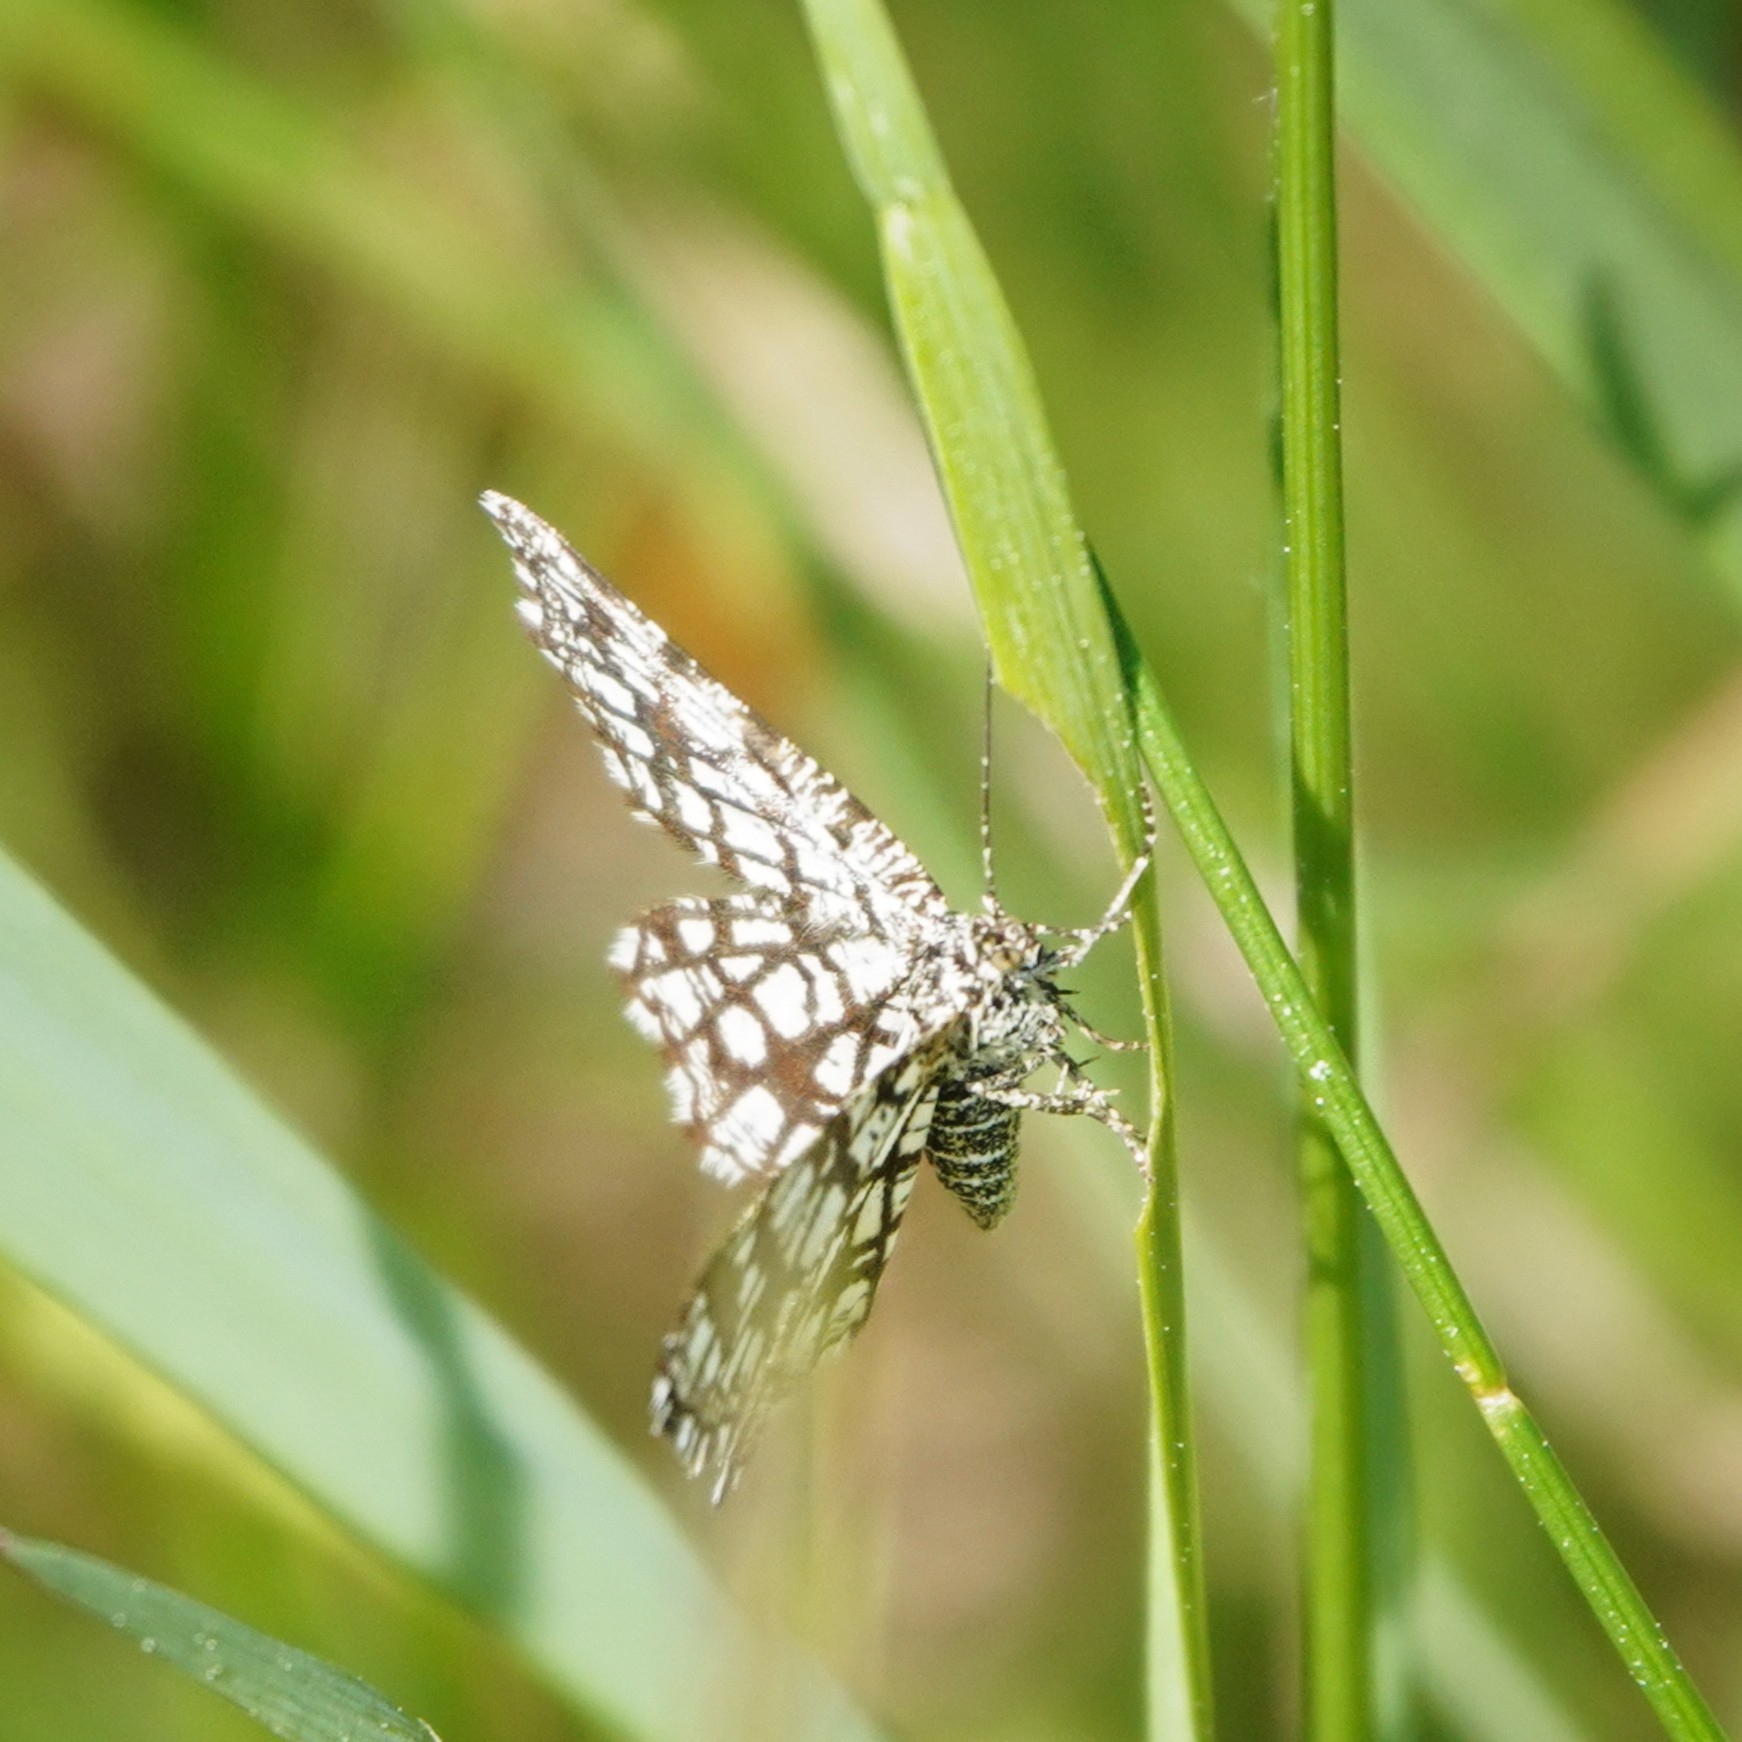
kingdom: Animalia
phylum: Arthropoda
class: Insecta
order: Lepidoptera
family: Geometridae
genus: Chiasmia
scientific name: Chiasmia clathrata
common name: Latticed heath
